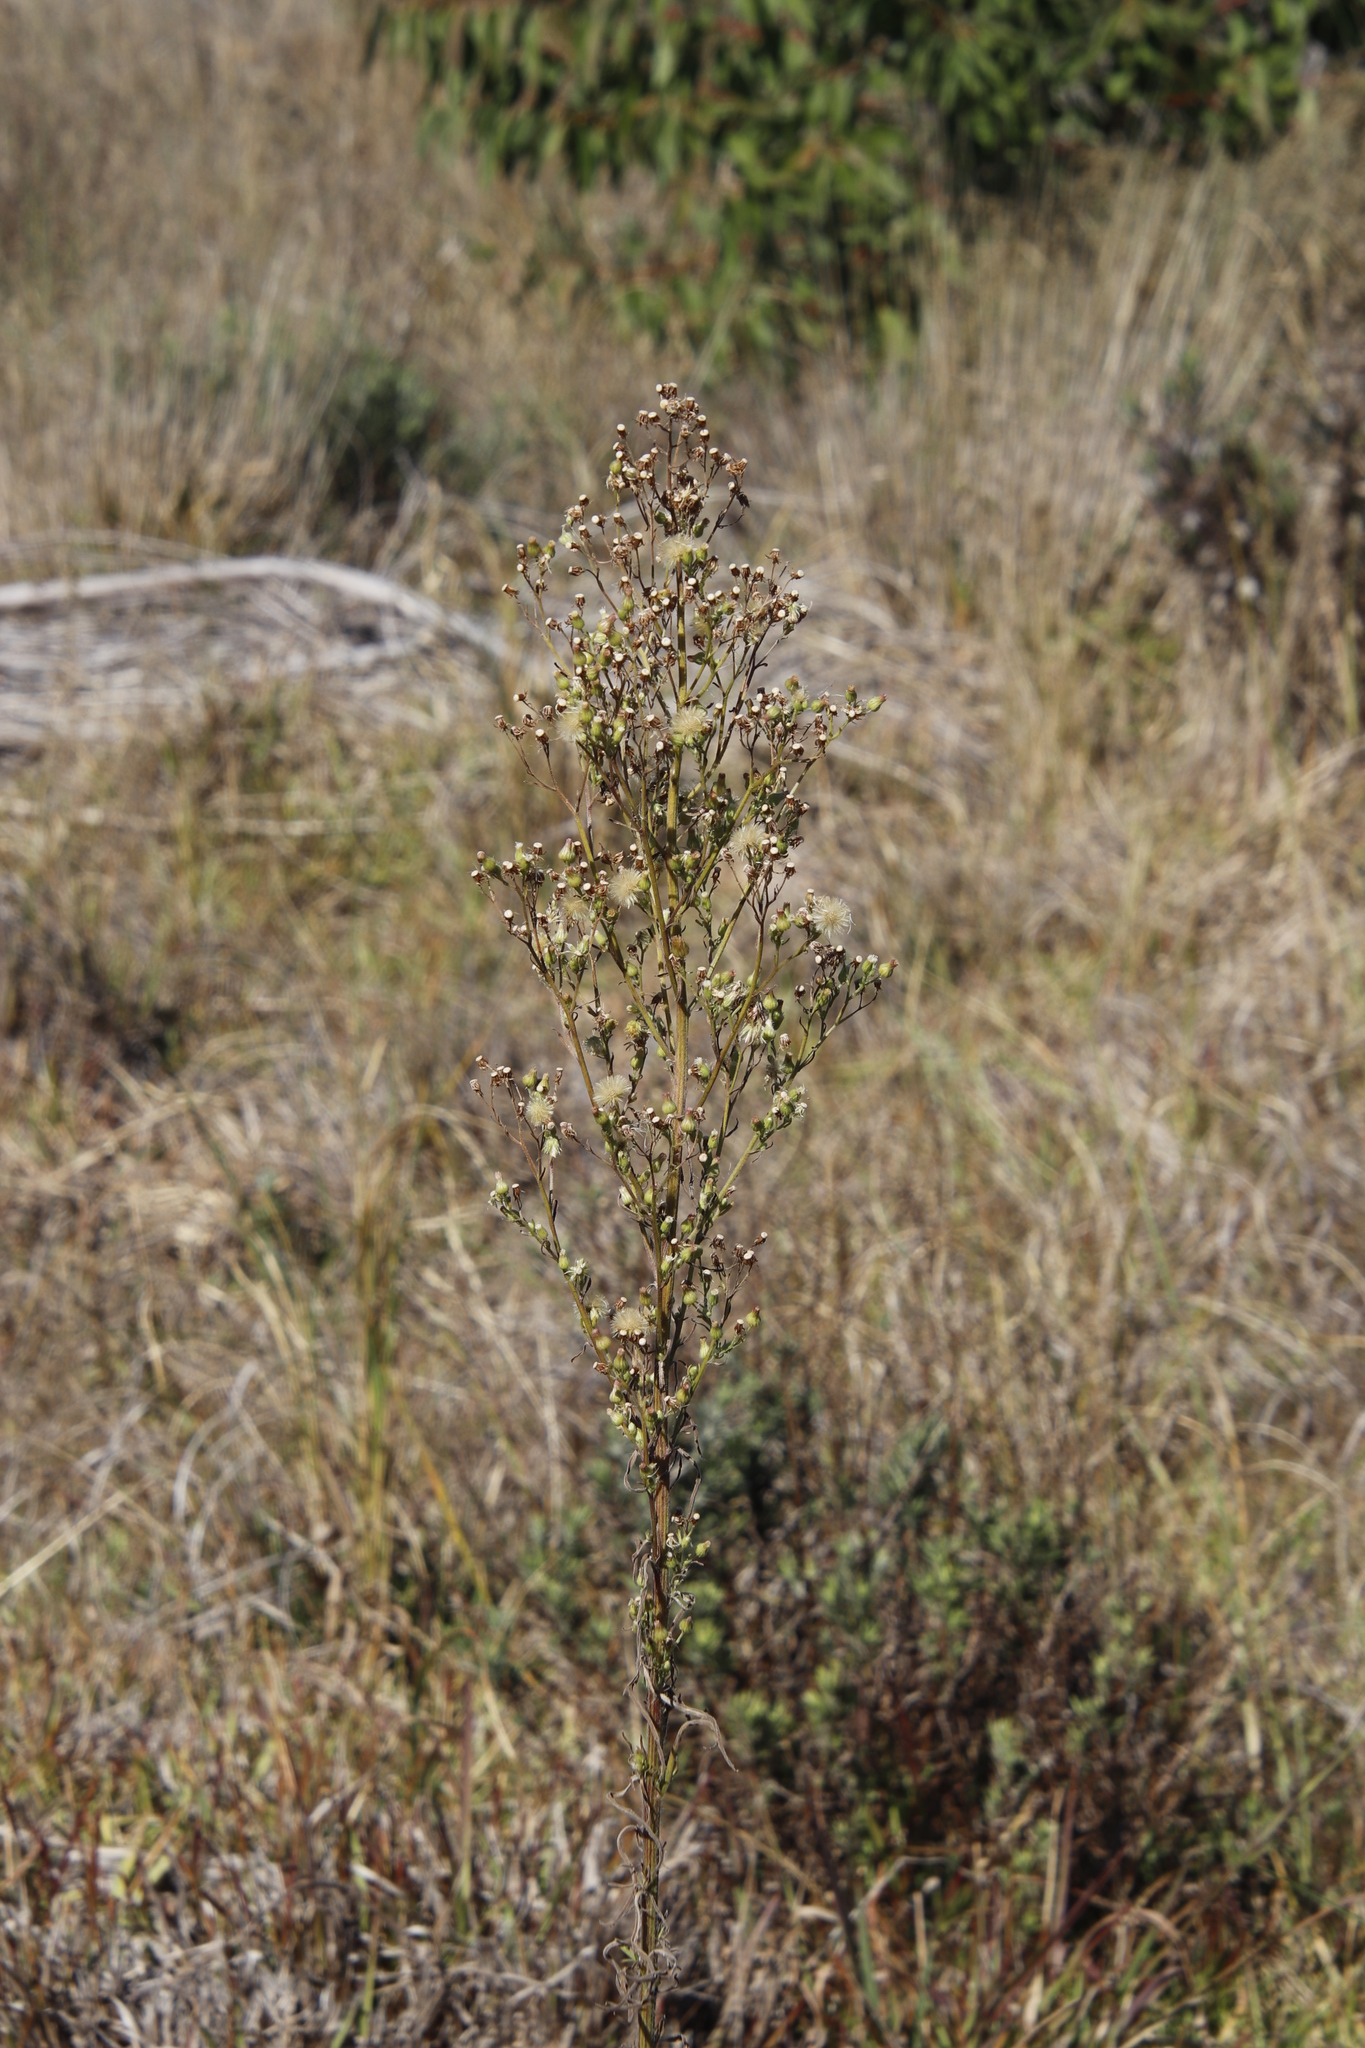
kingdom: Plantae
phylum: Tracheophyta
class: Magnoliopsida
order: Asterales
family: Asteraceae
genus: Erigeron
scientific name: Erigeron sumatrensis
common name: Daisy
